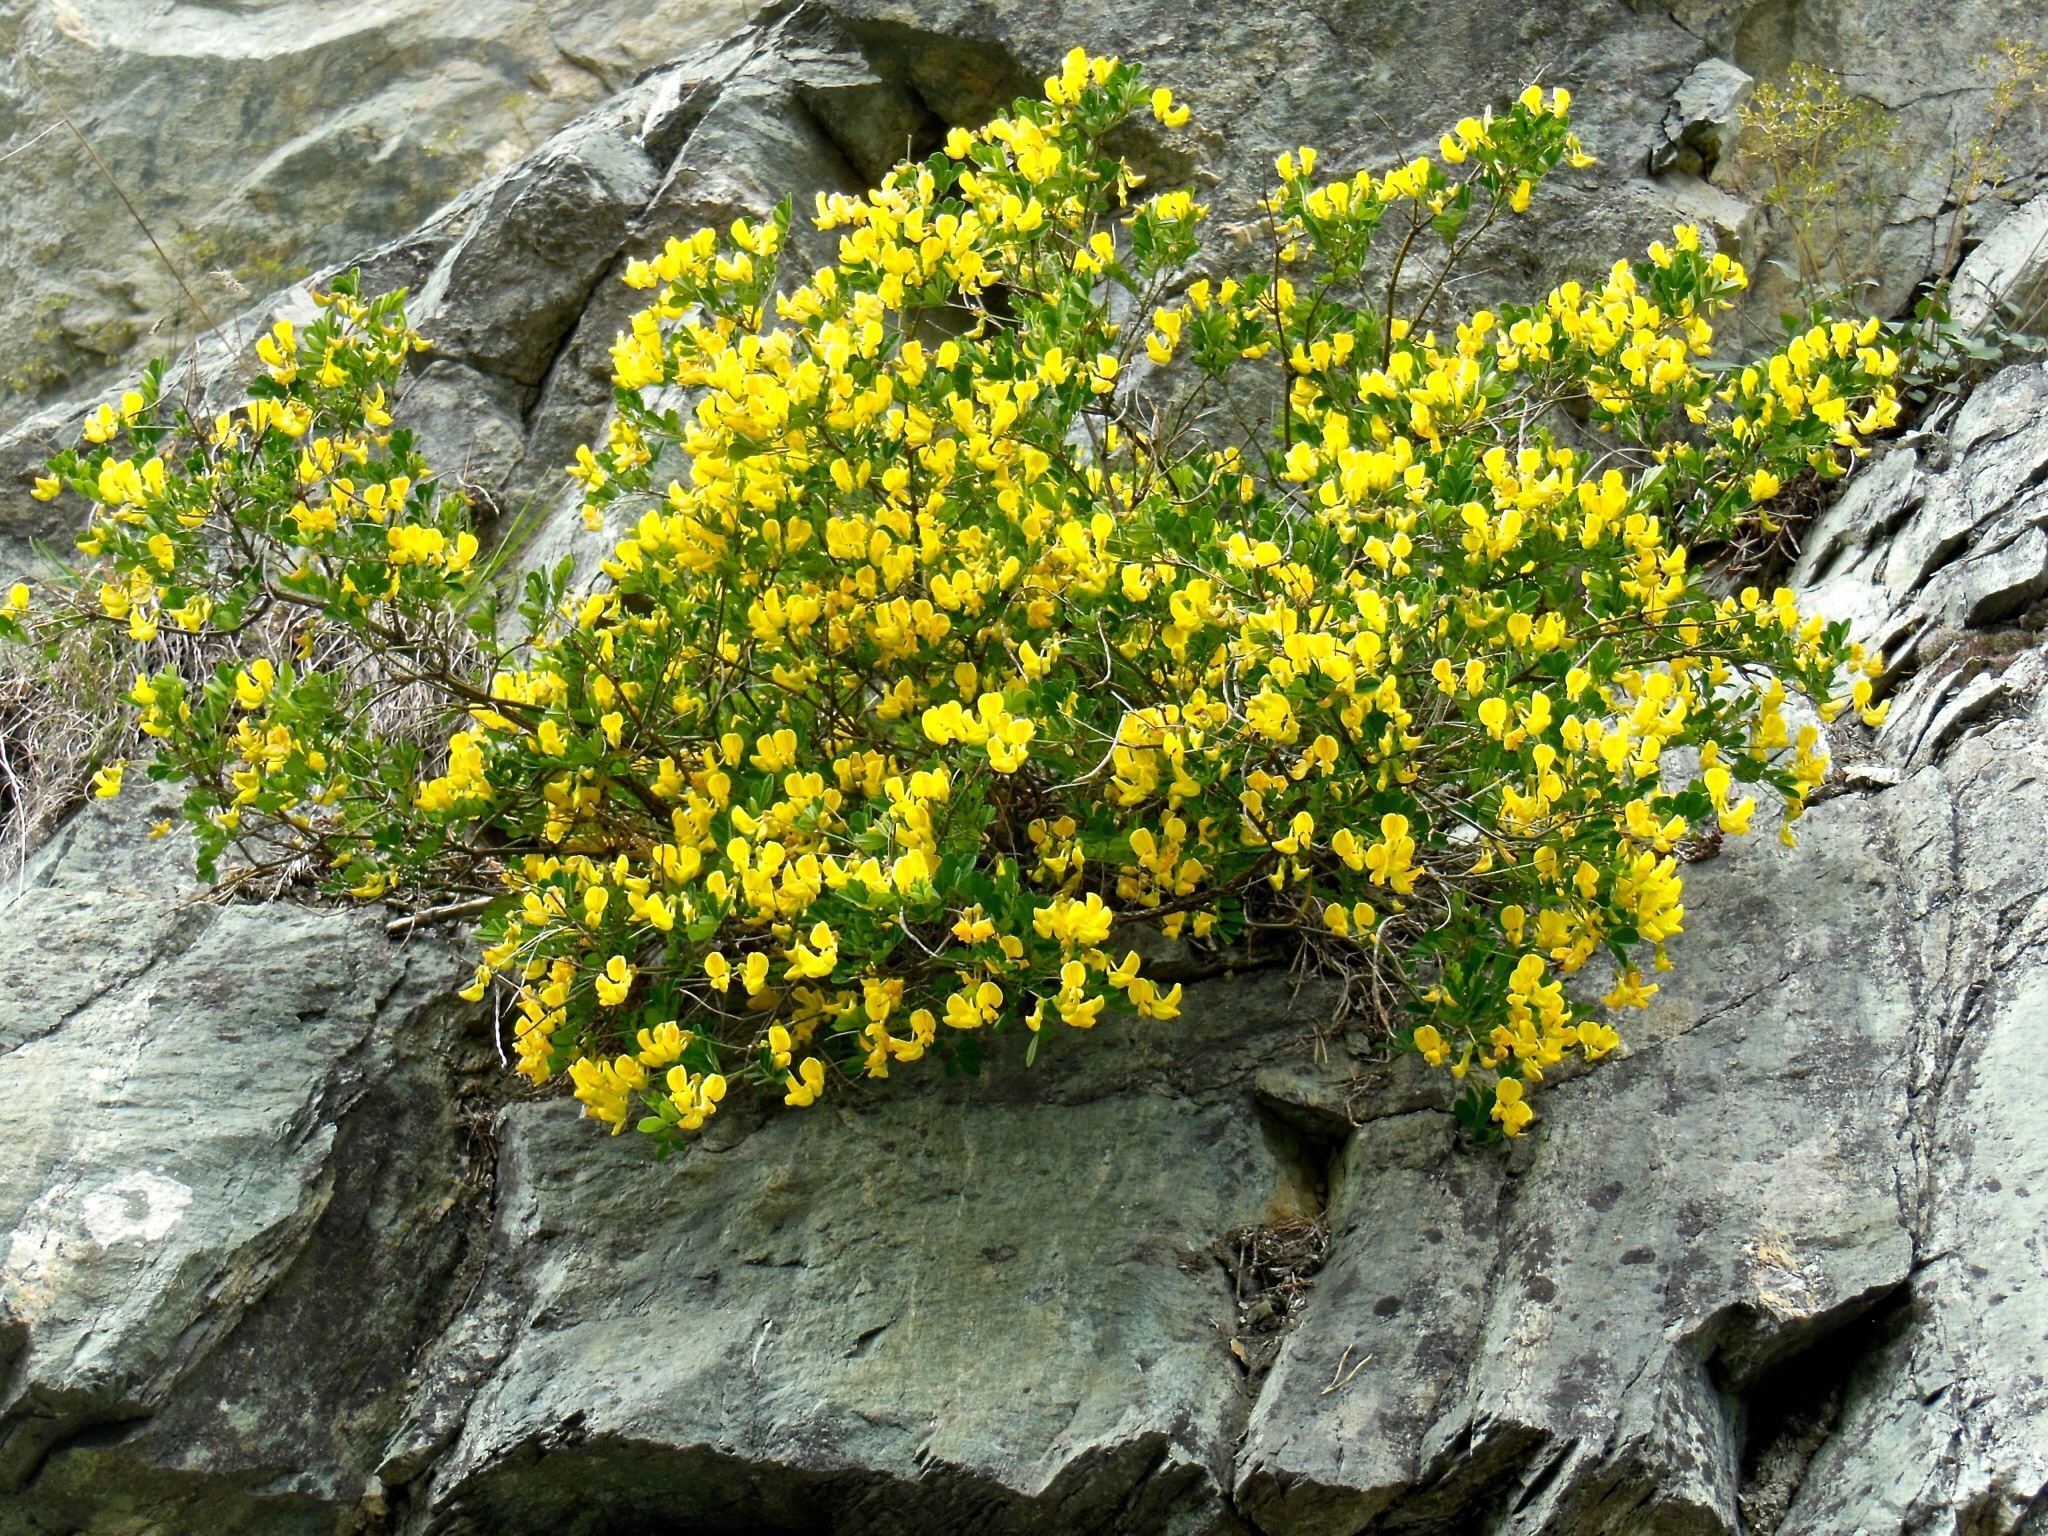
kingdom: Plantae
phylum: Tracheophyta
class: Magnoliopsida
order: Fabales
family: Fabaceae
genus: Hippocrepis
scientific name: Hippocrepis emerus
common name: Scorpion senna
